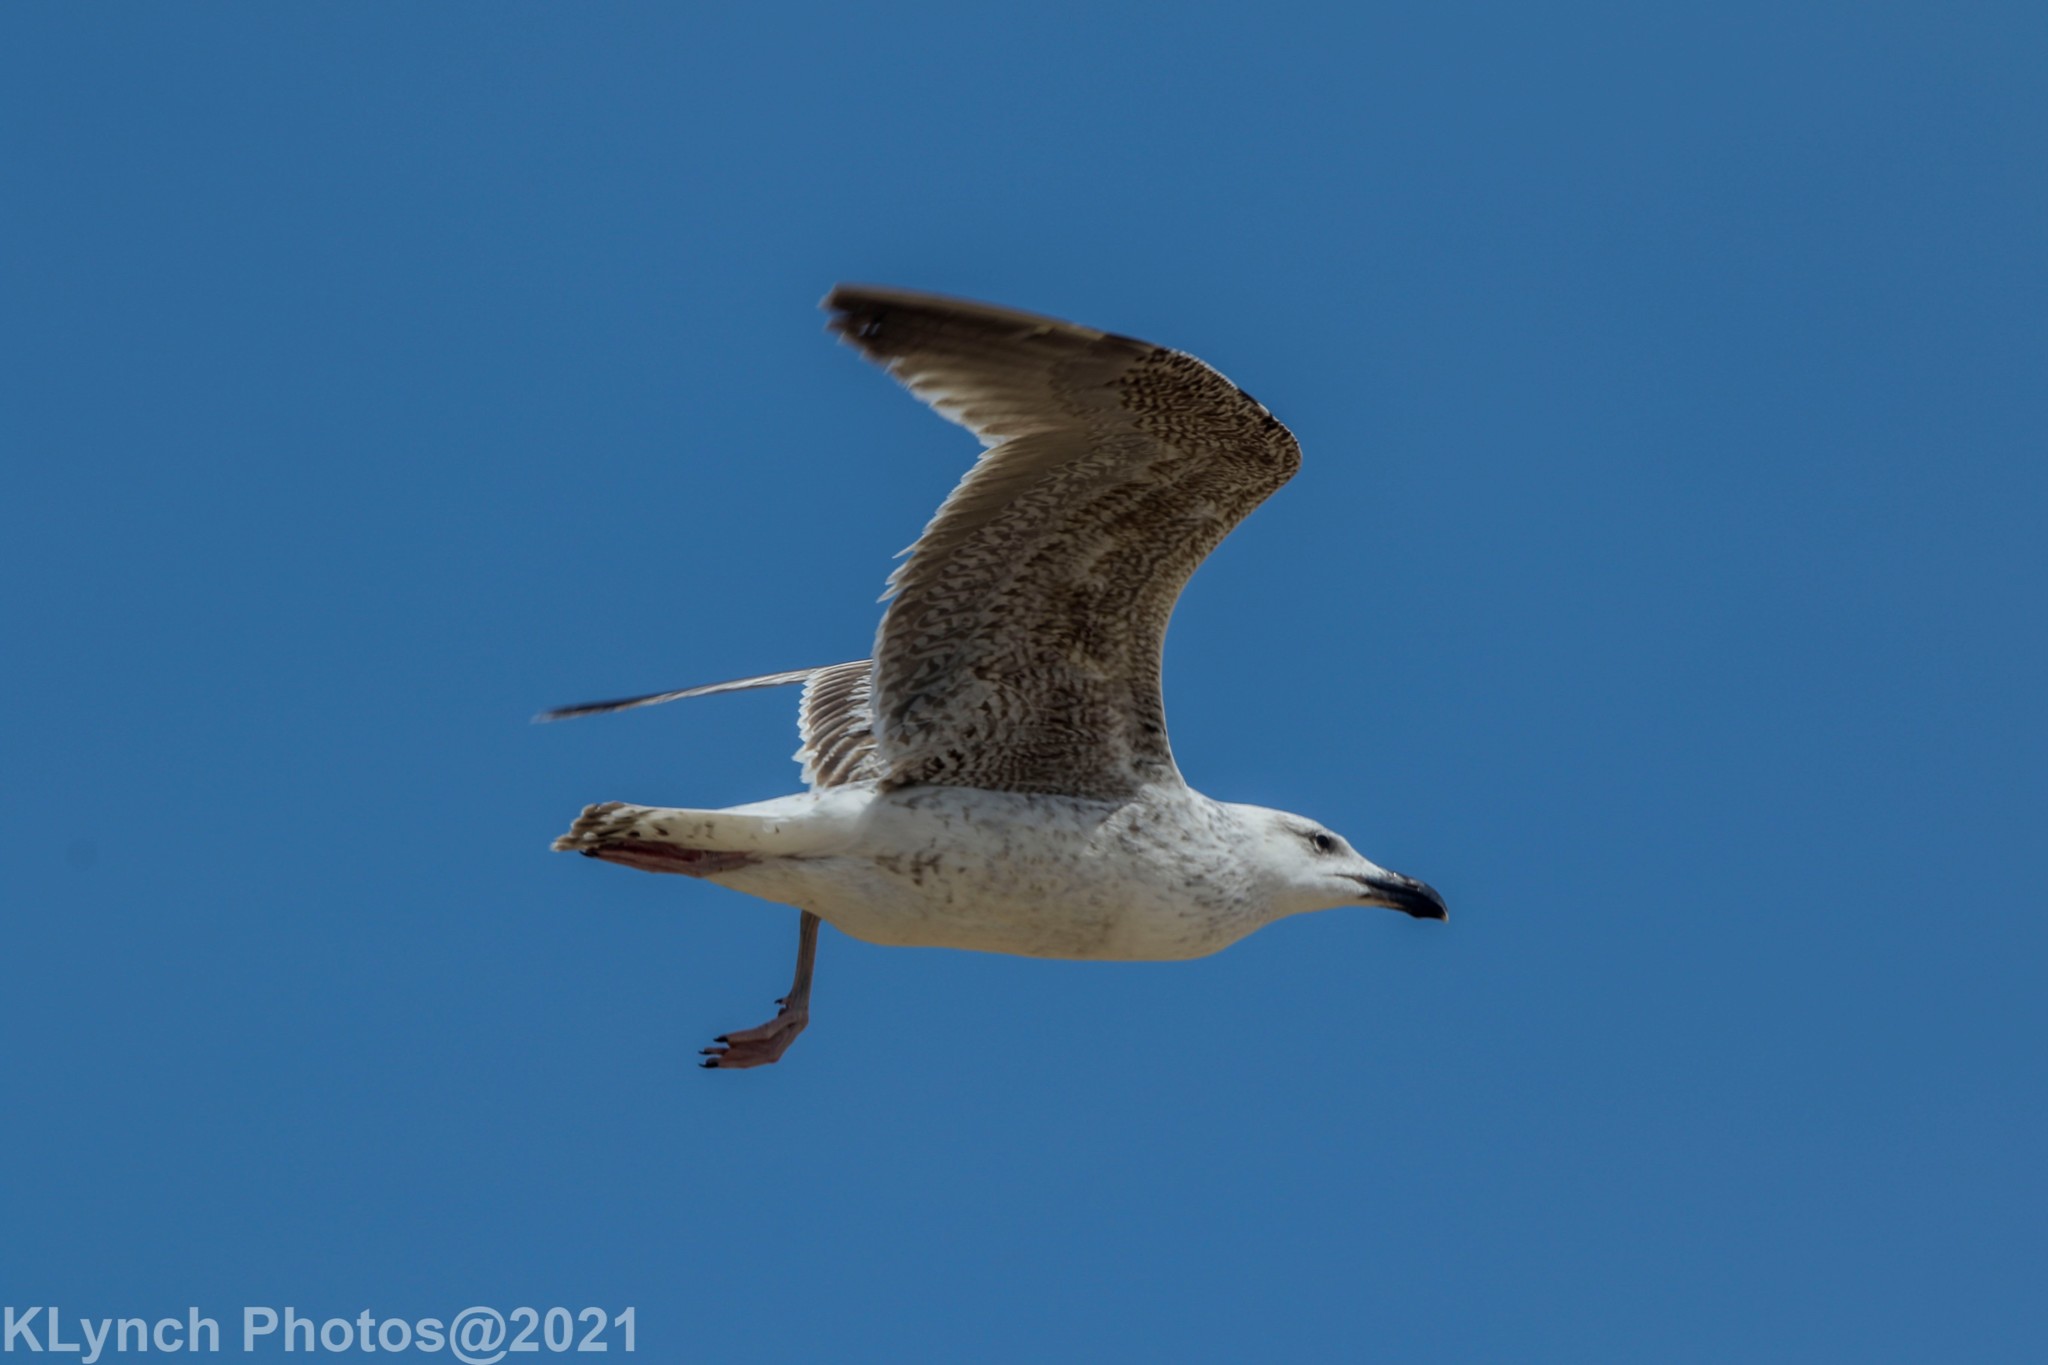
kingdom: Animalia
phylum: Chordata
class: Aves
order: Charadriiformes
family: Laridae
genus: Larus
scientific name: Larus marinus
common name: Great black-backed gull
